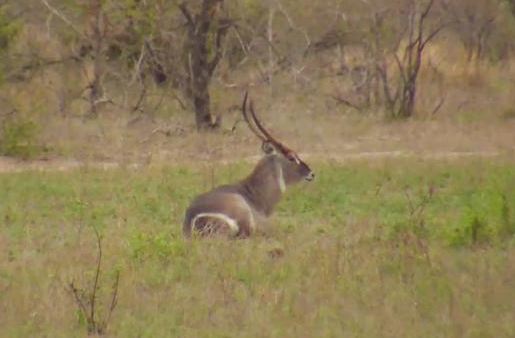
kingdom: Animalia
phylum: Chordata
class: Mammalia
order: Artiodactyla
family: Bovidae
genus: Kobus
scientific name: Kobus ellipsiprymnus
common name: Waterbuck
